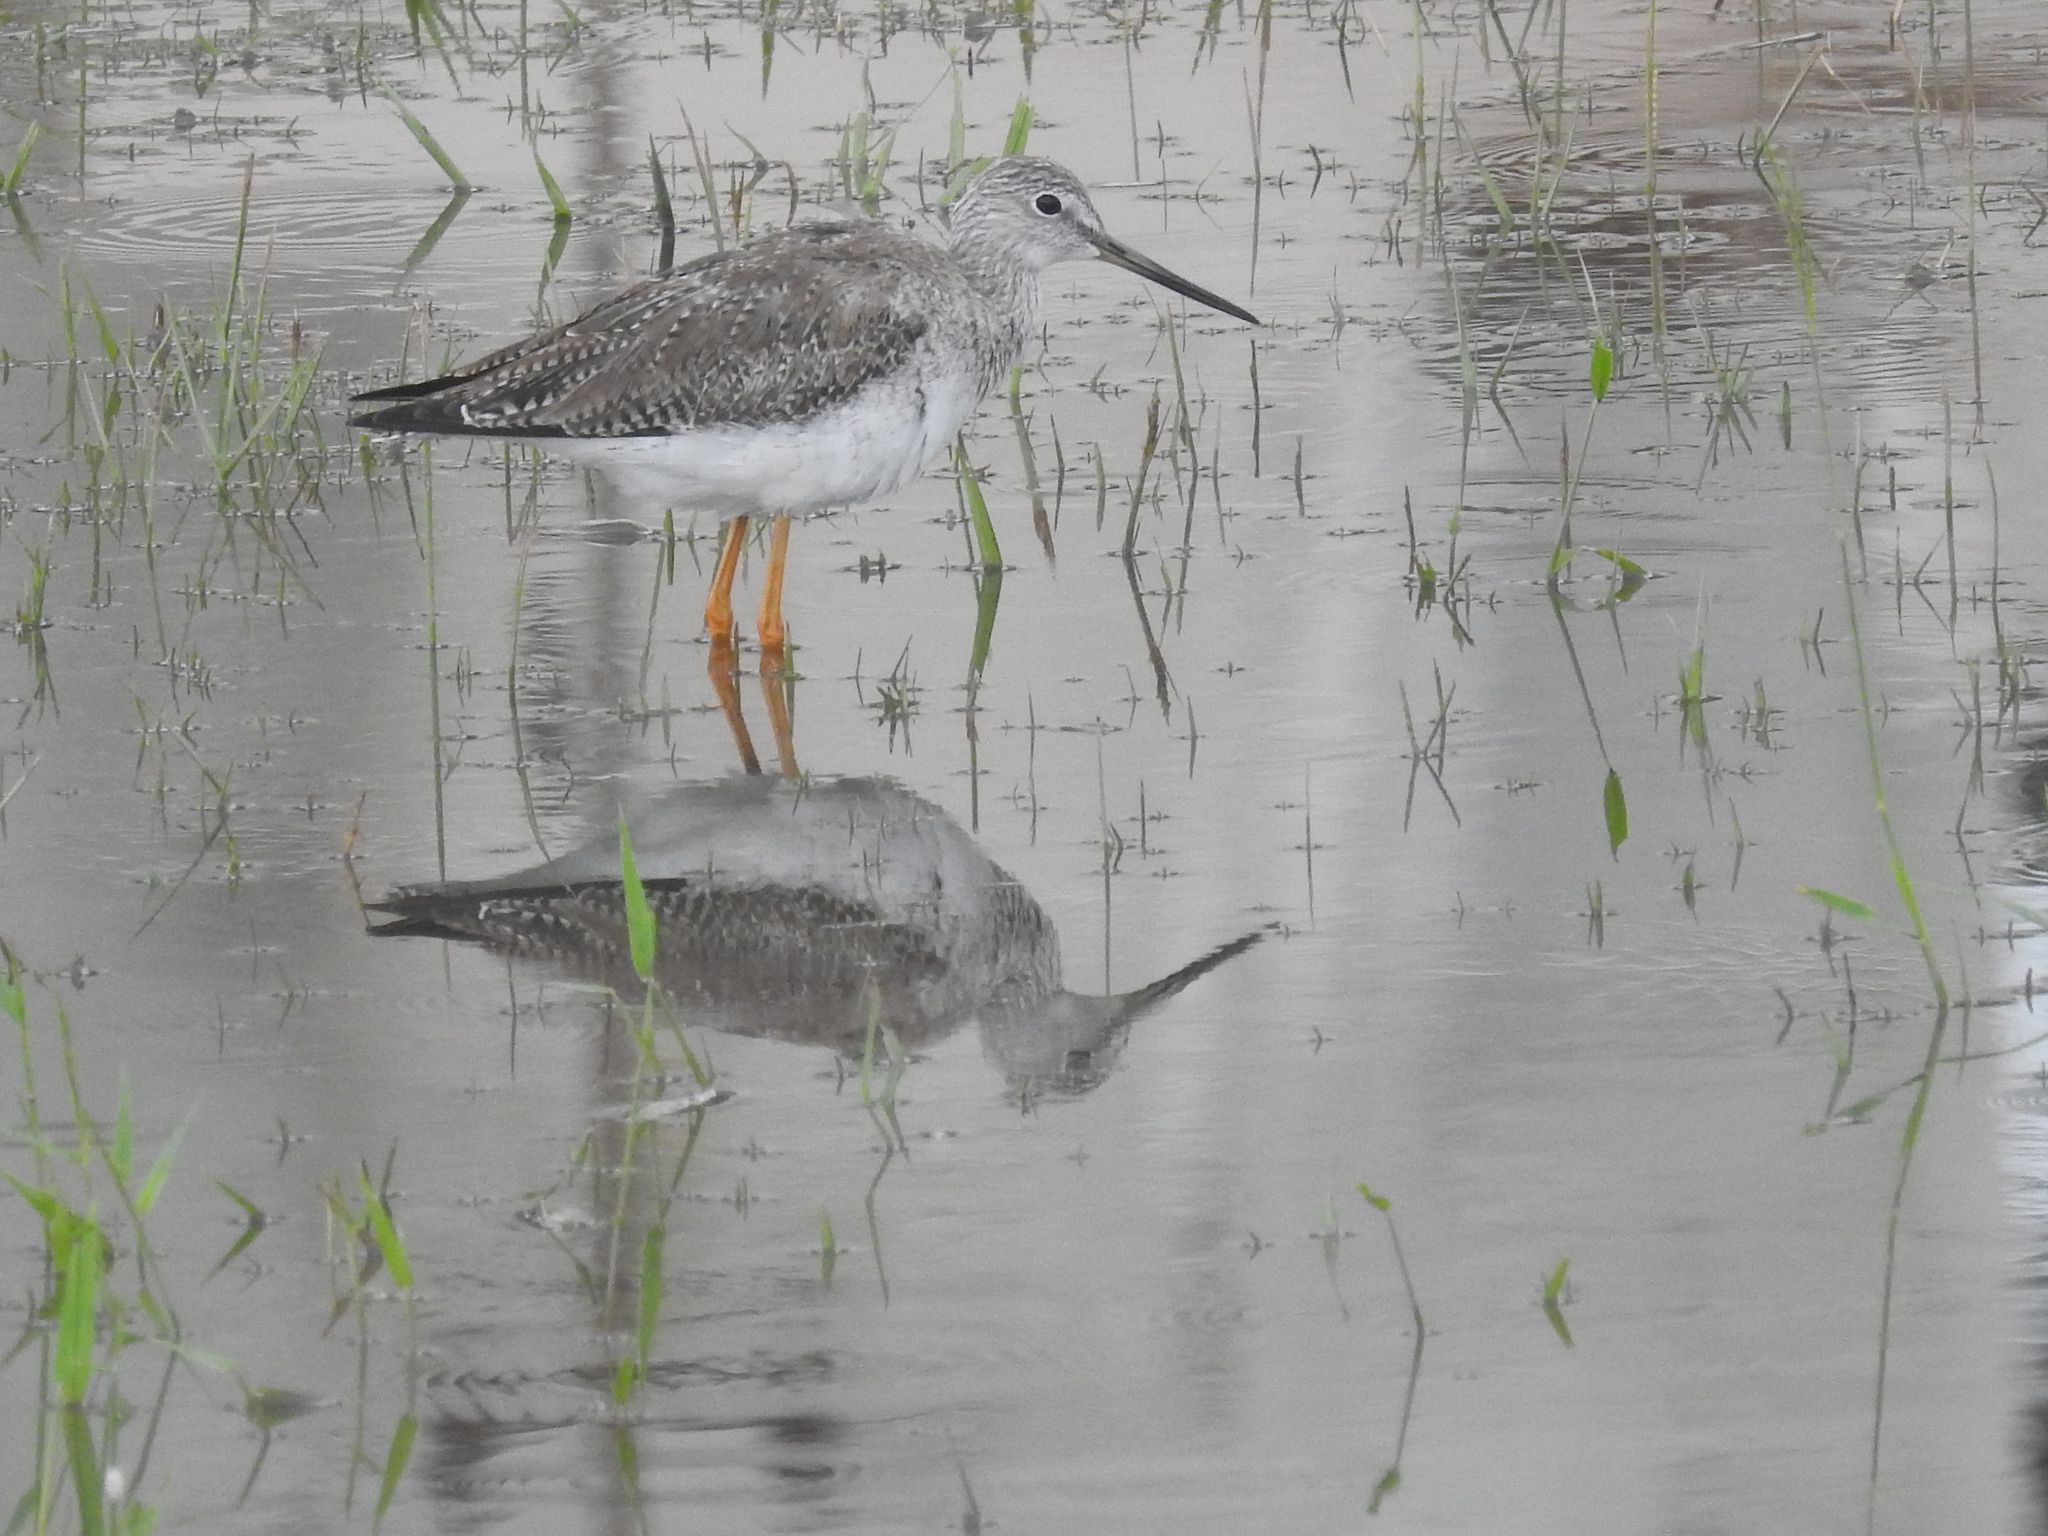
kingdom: Animalia
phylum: Chordata
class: Aves
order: Charadriiformes
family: Scolopacidae
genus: Tringa
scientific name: Tringa melanoleuca
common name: Greater yellowlegs
